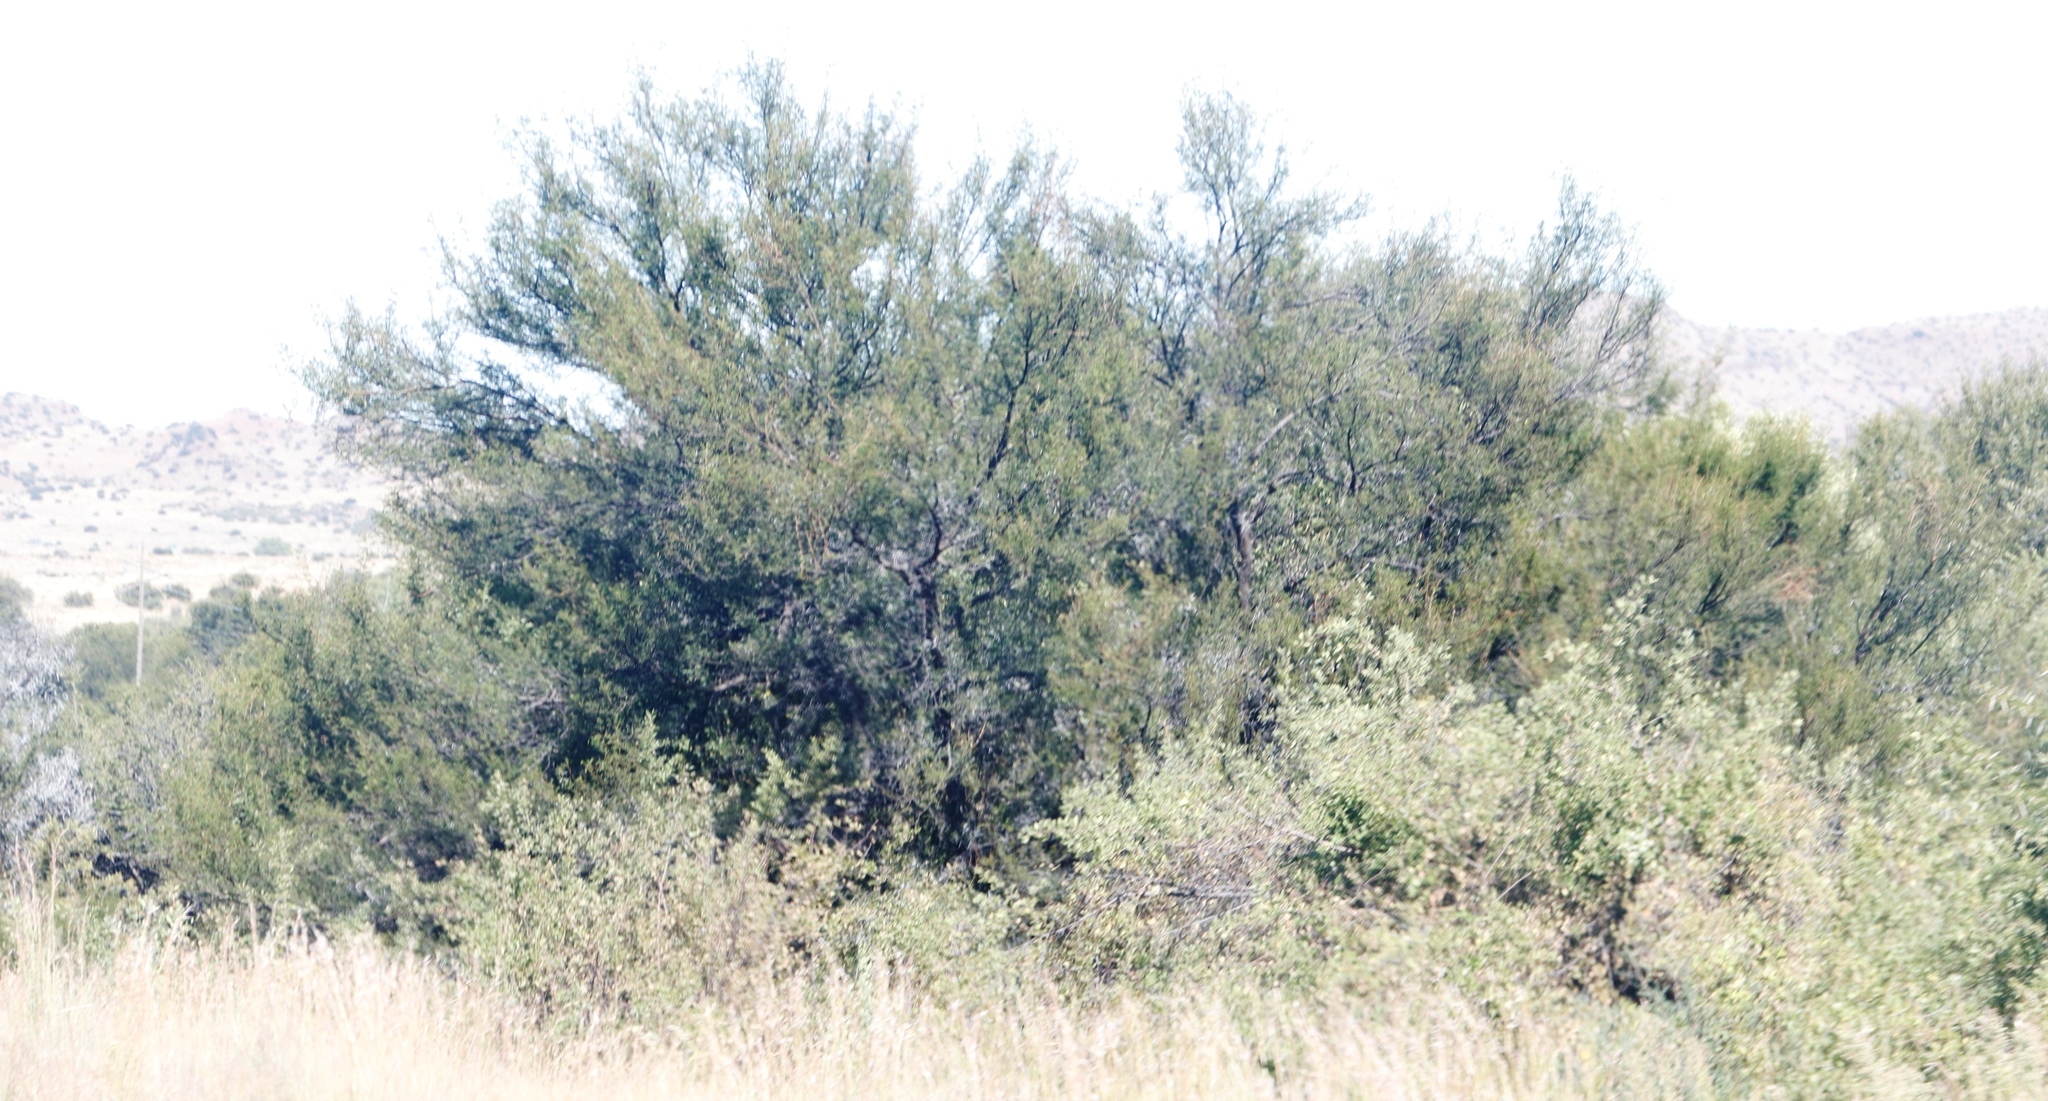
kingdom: Plantae
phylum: Tracheophyta
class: Magnoliopsida
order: Fabales
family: Fabaceae
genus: Vachellia
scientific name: Vachellia karroo
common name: Sweet thorn
